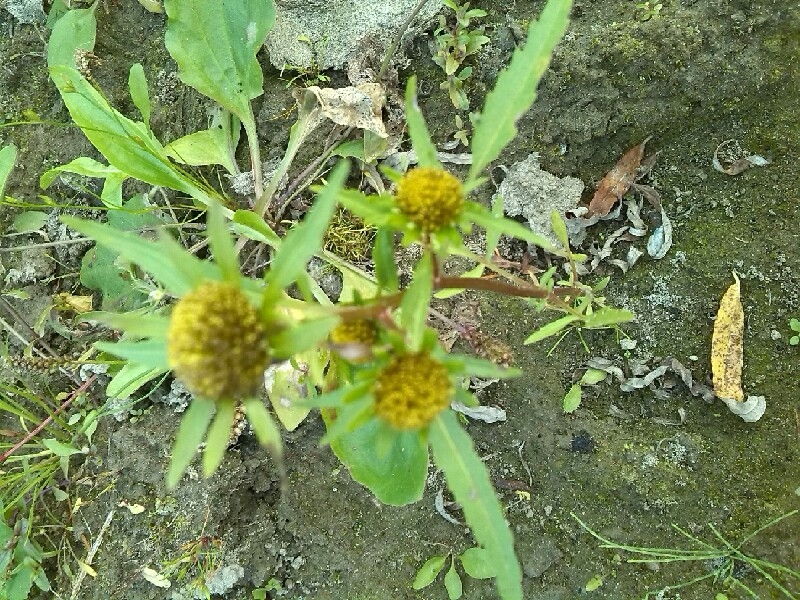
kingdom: Plantae
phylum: Tracheophyta
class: Magnoliopsida
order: Asterales
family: Asteraceae
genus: Bidens
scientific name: Bidens radiata
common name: Radiating bur-marigold
